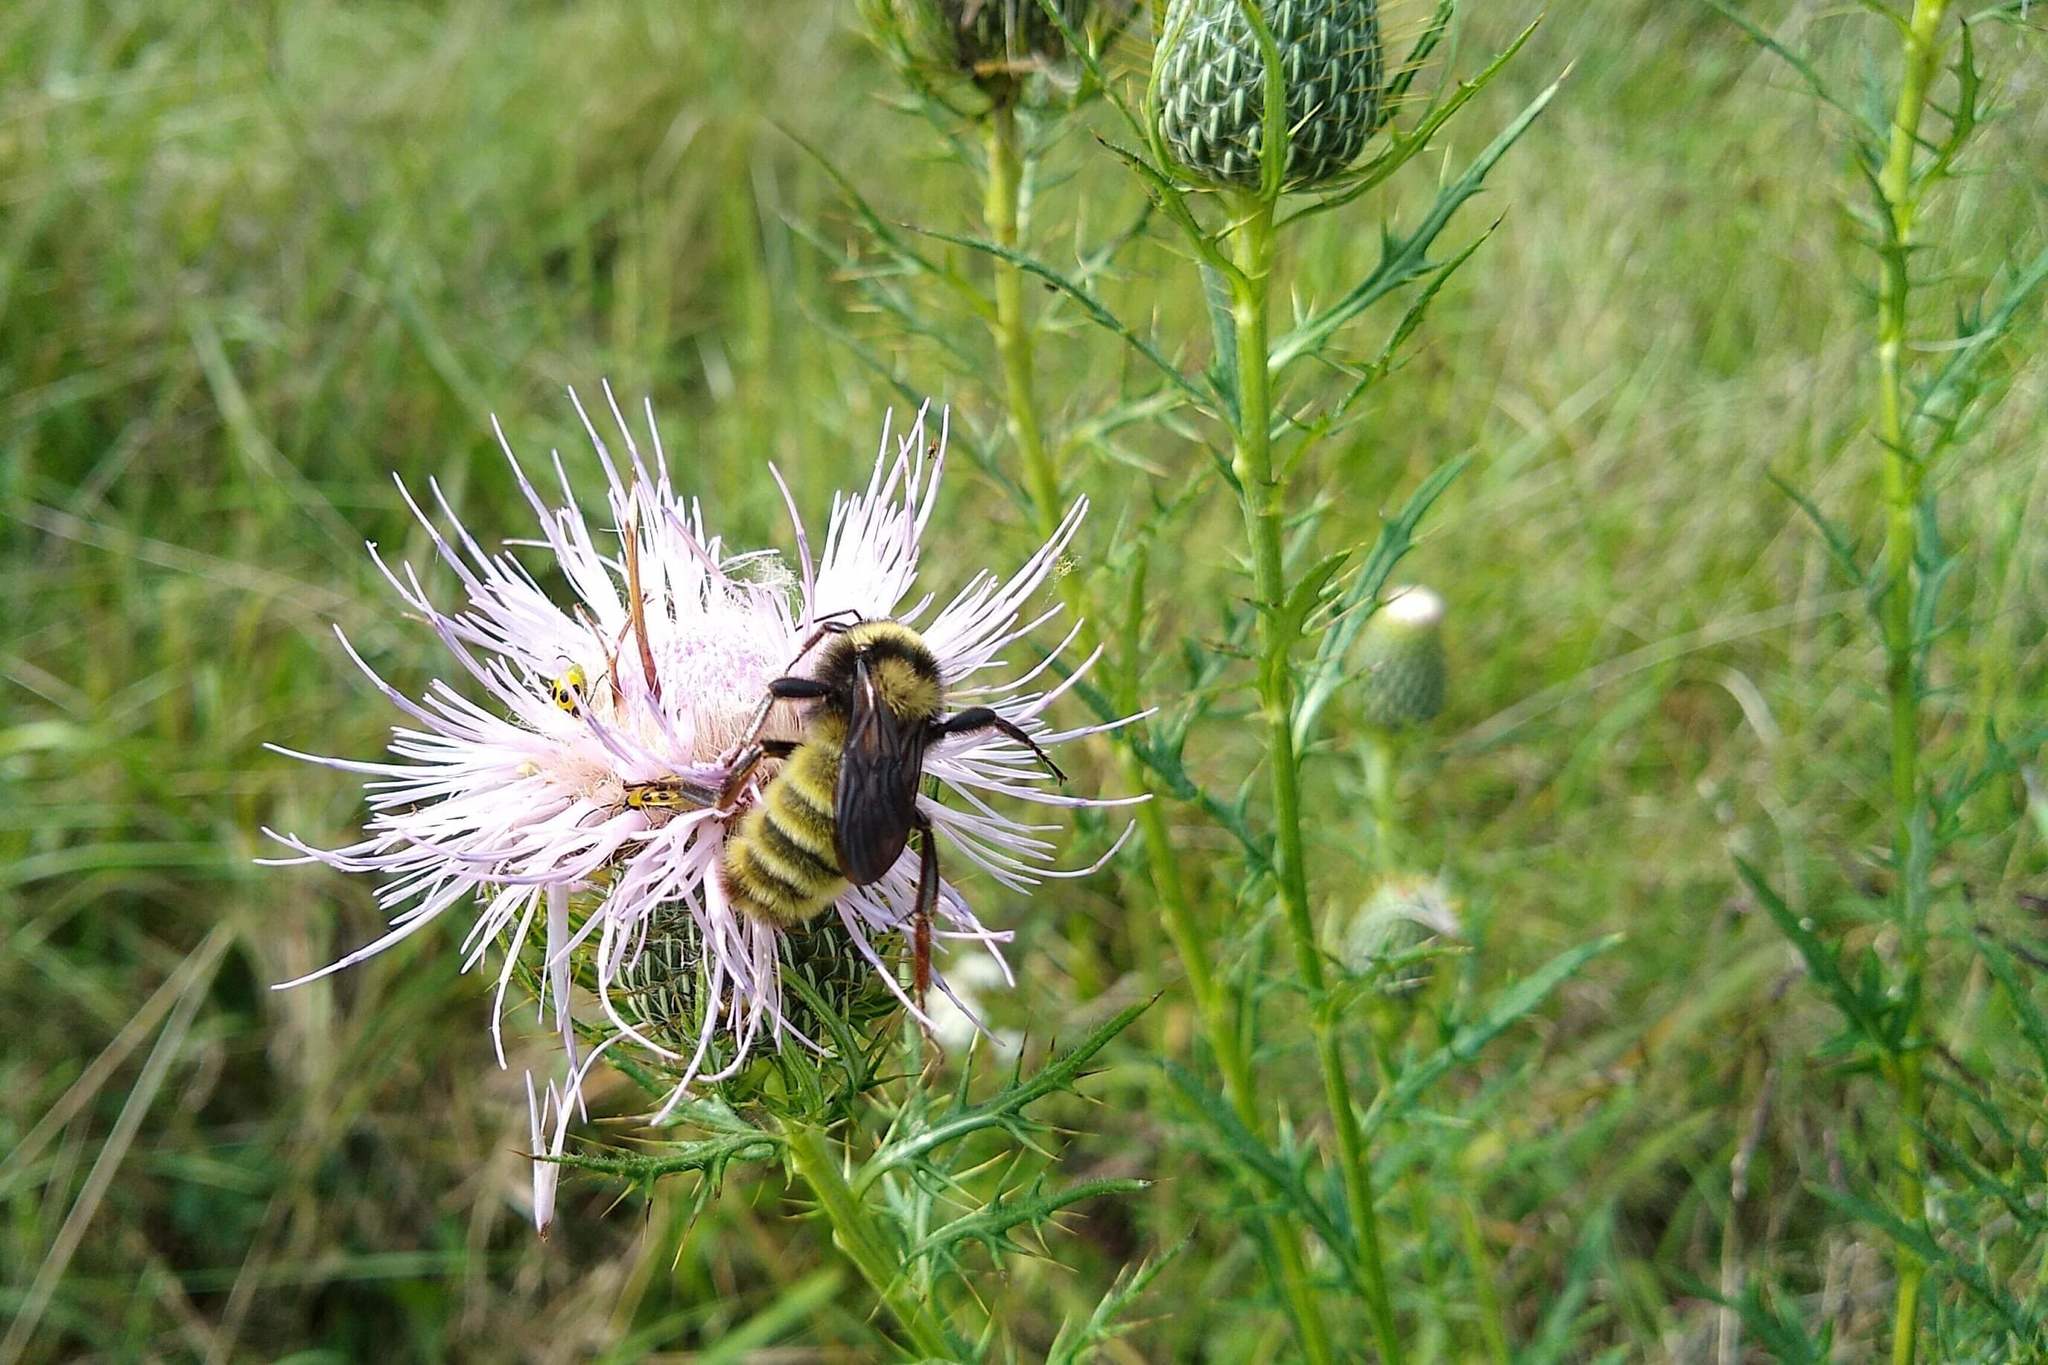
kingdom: Animalia
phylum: Arthropoda
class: Insecta
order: Hymenoptera
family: Apidae
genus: Bombus
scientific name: Bombus pensylvanicus
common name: Bumble bee
